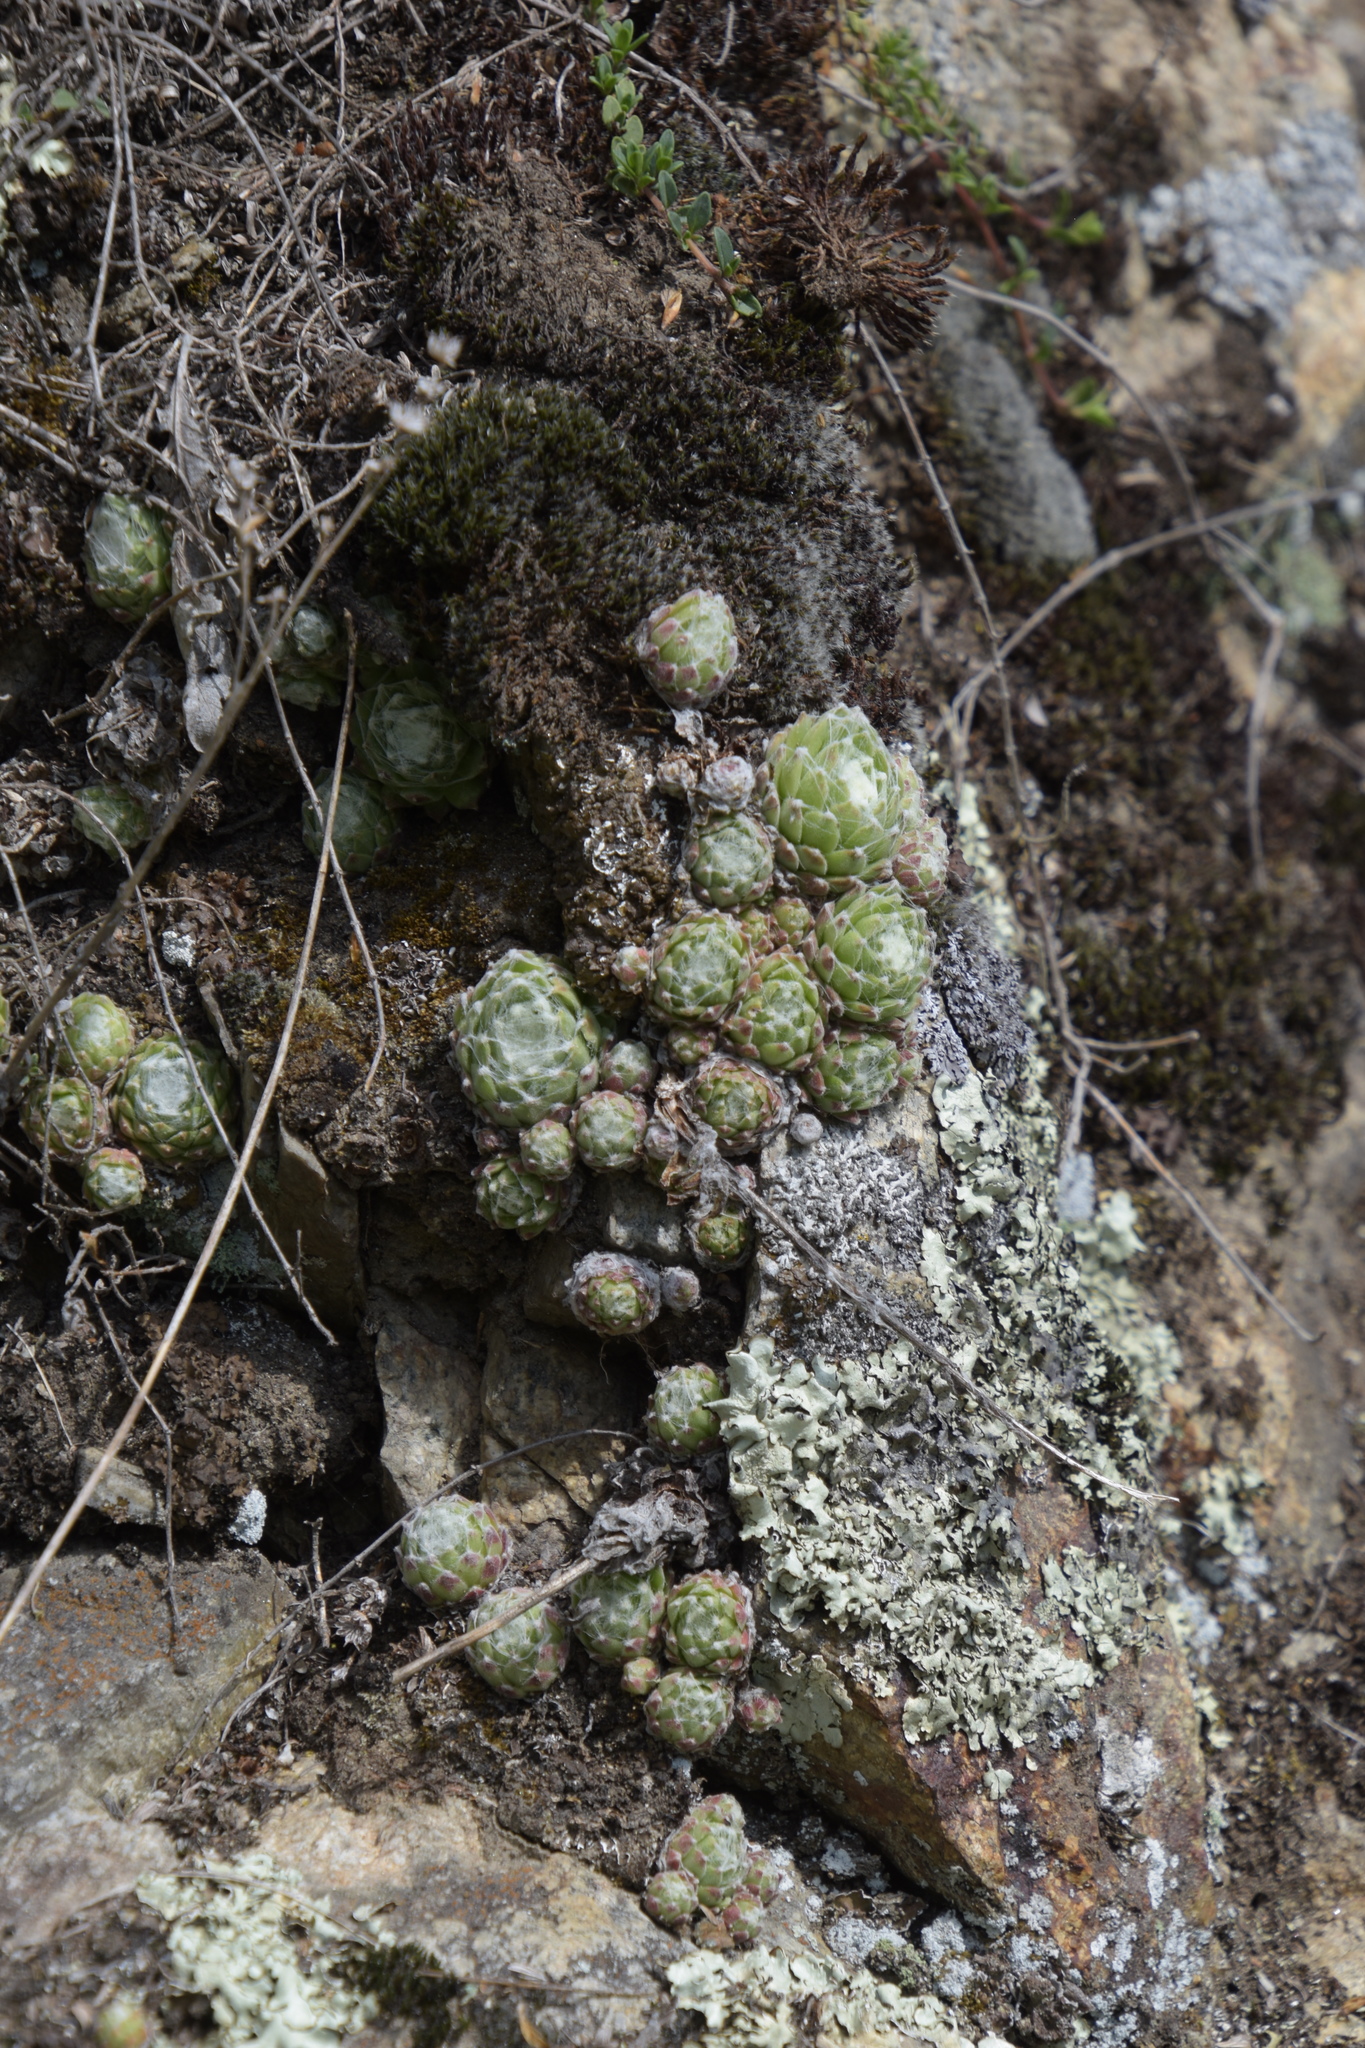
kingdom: Plantae
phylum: Tracheophyta
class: Magnoliopsida
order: Saxifragales
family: Crassulaceae
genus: Sempervivum
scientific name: Sempervivum arachnoideum
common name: Cobweb house-leek
